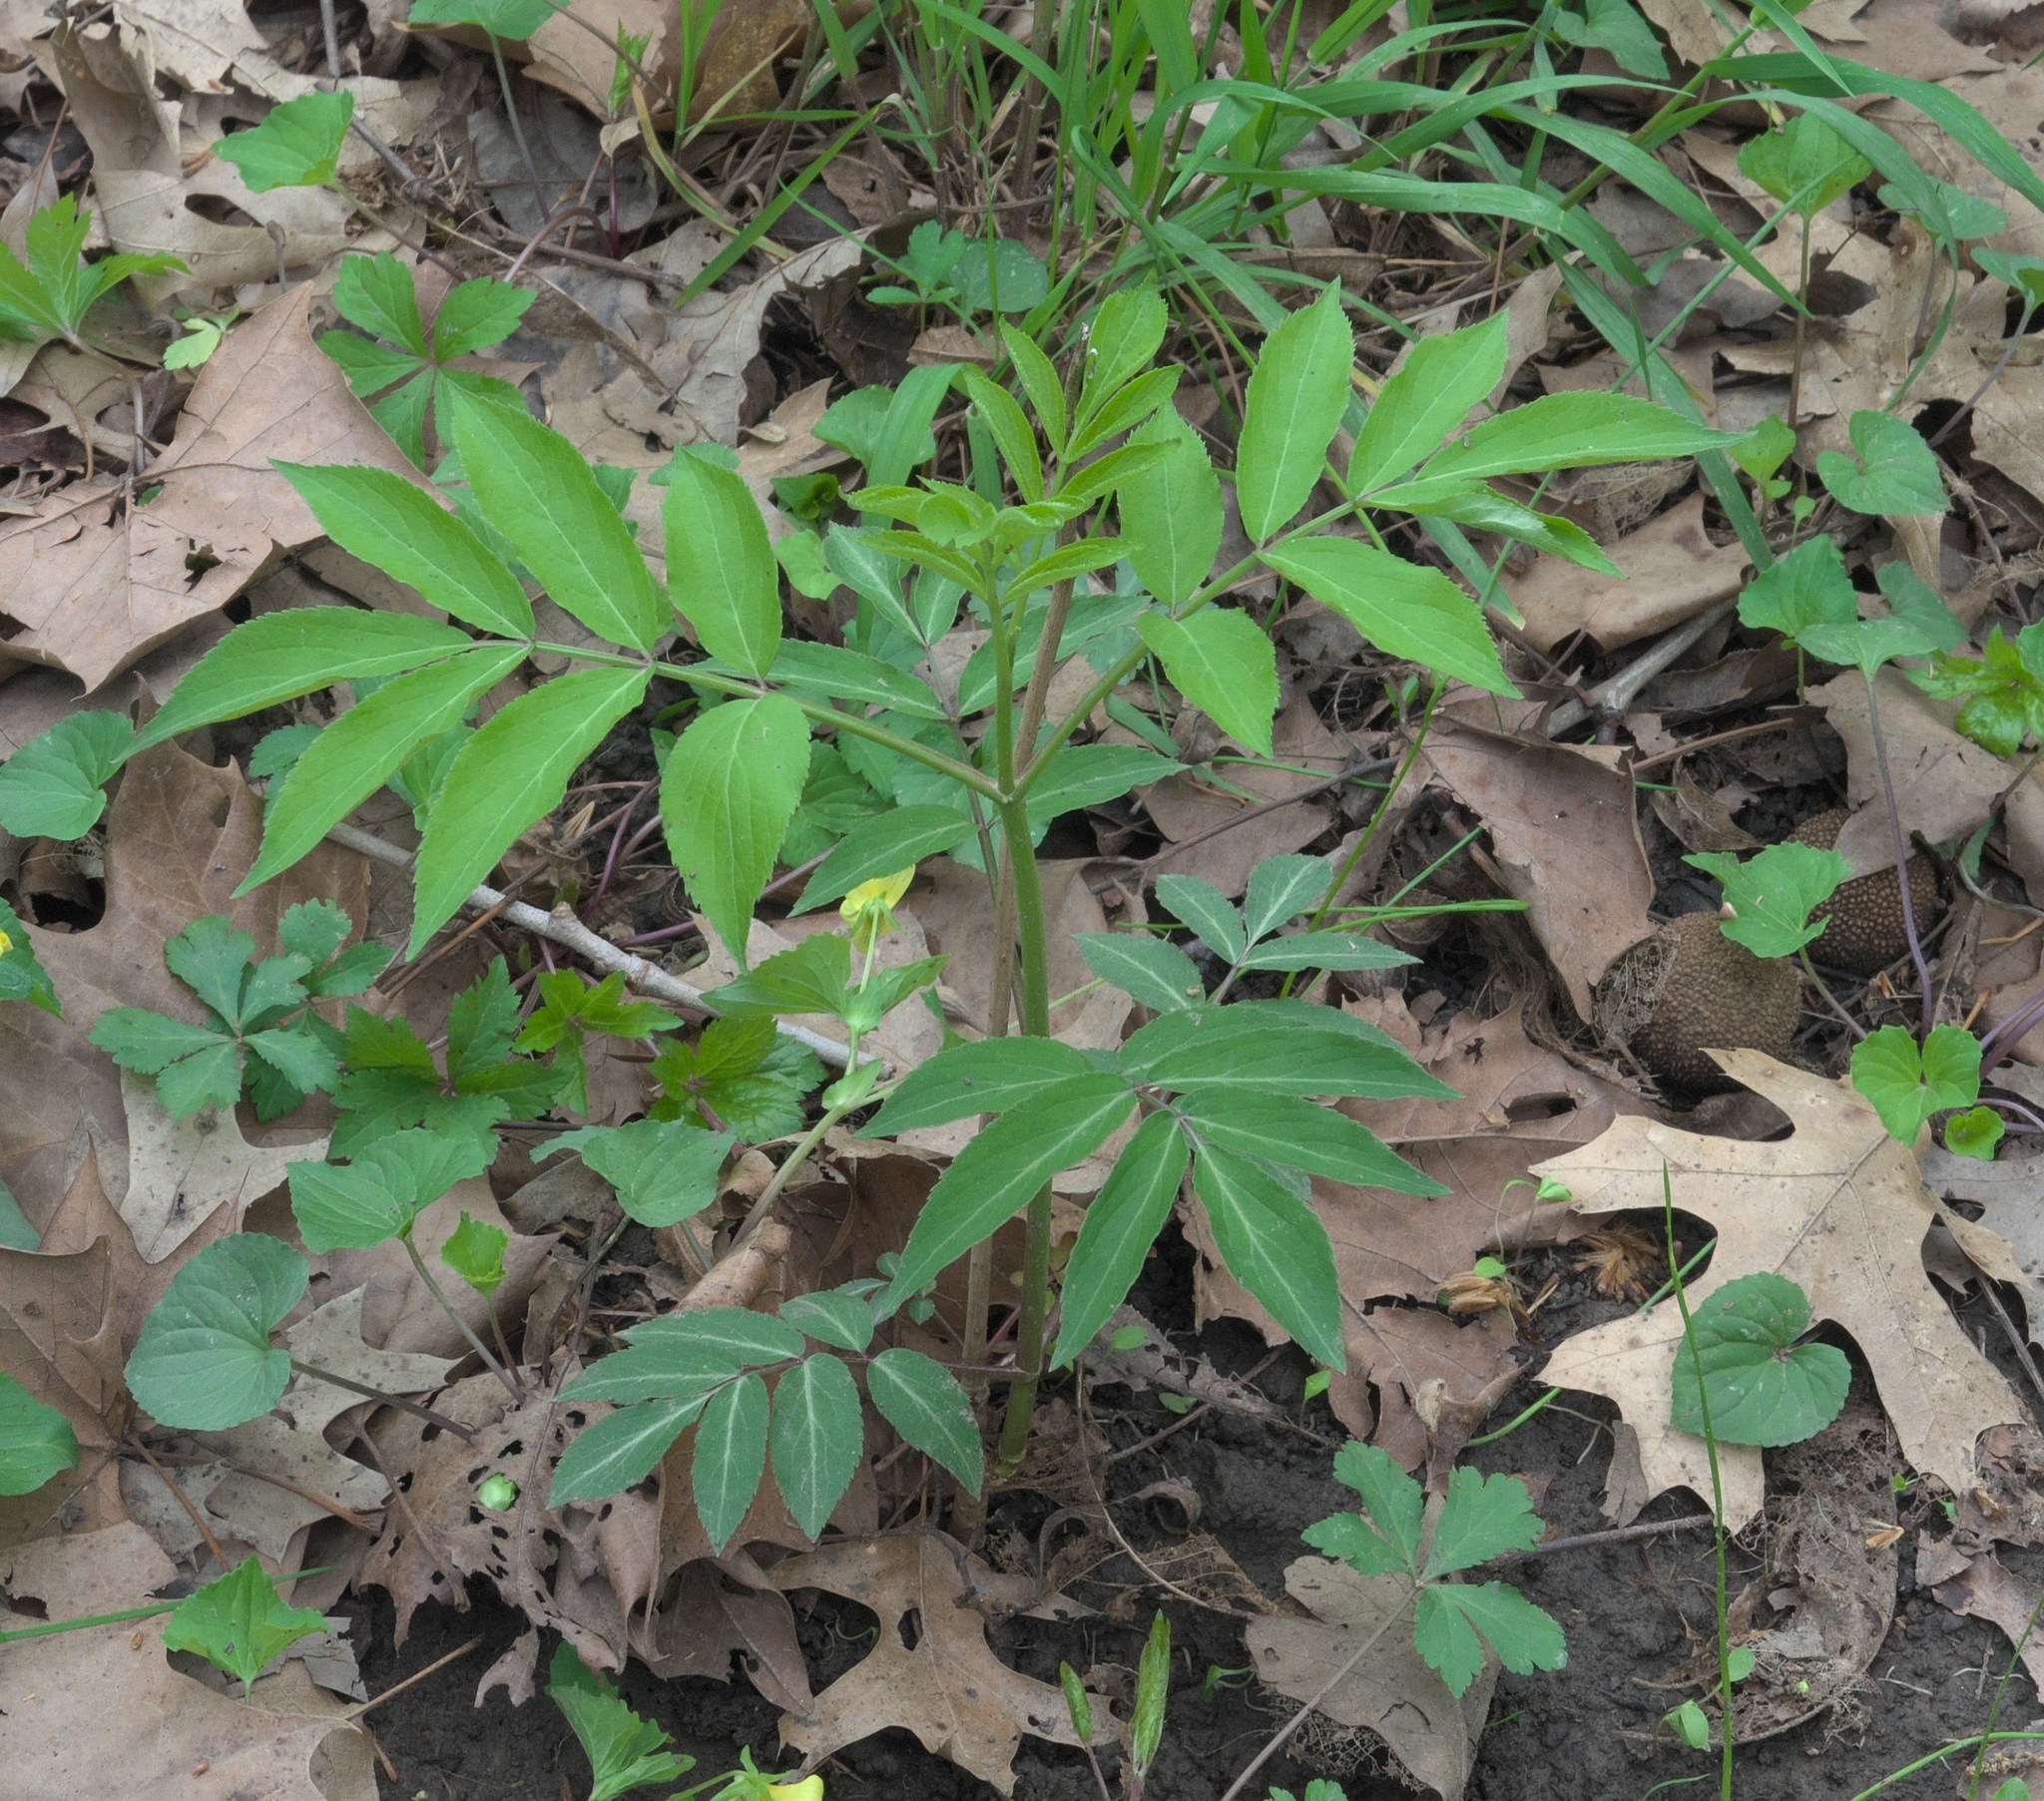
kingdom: Plantae
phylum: Tracheophyta
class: Magnoliopsida
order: Dipsacales
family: Viburnaceae
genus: Sambucus
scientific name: Sambucus canadensis
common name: American elder
